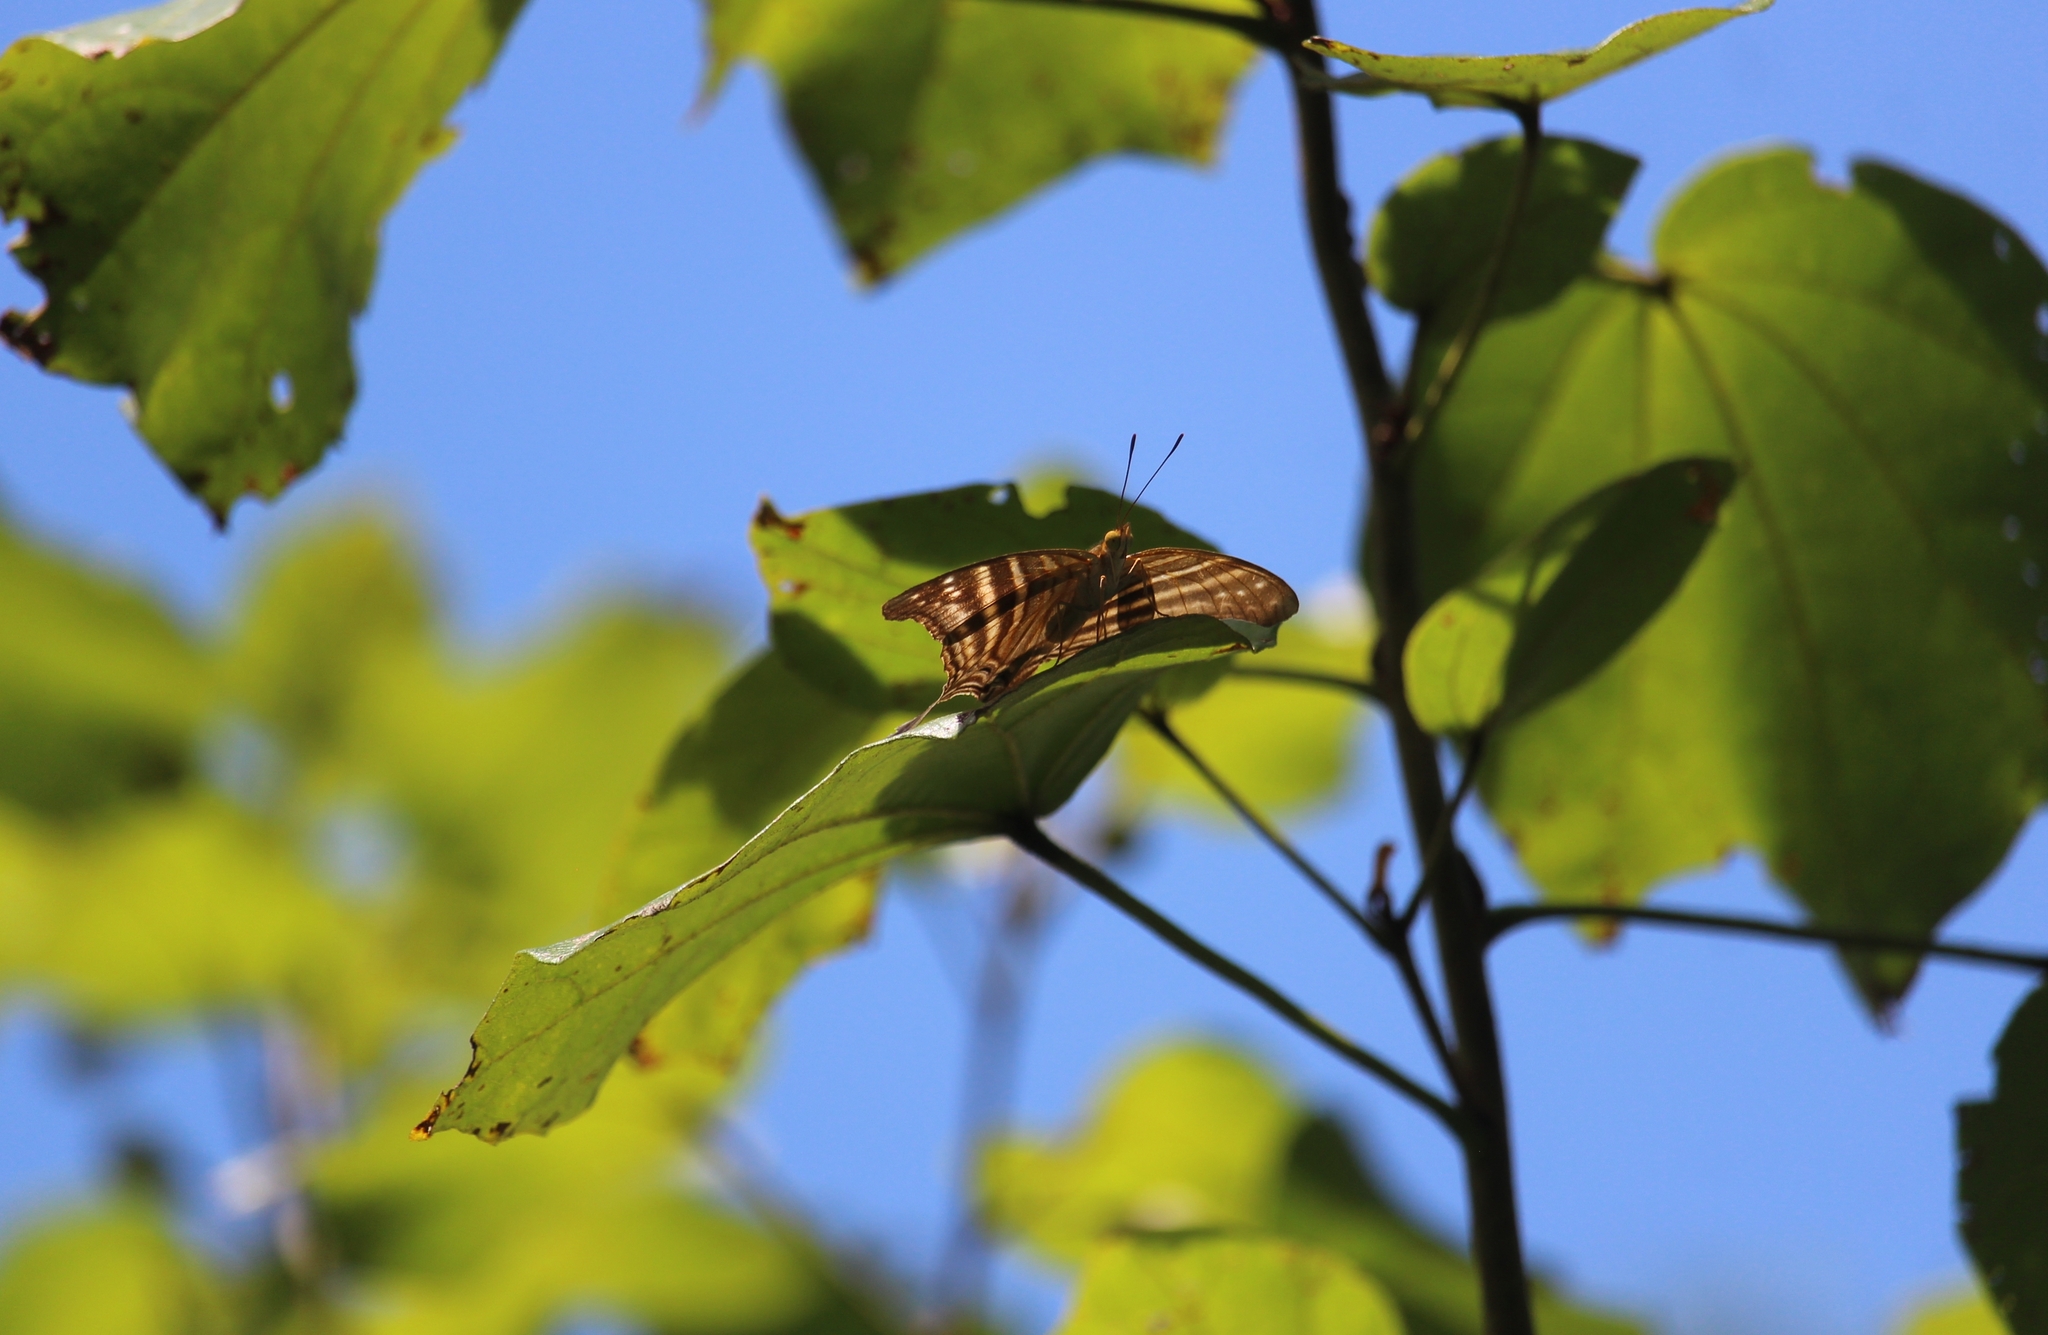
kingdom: Animalia
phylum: Arthropoda
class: Insecta
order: Lepidoptera
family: Nymphalidae
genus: Marpesia
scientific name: Marpesia chiron
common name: Many-banded daggerwing
